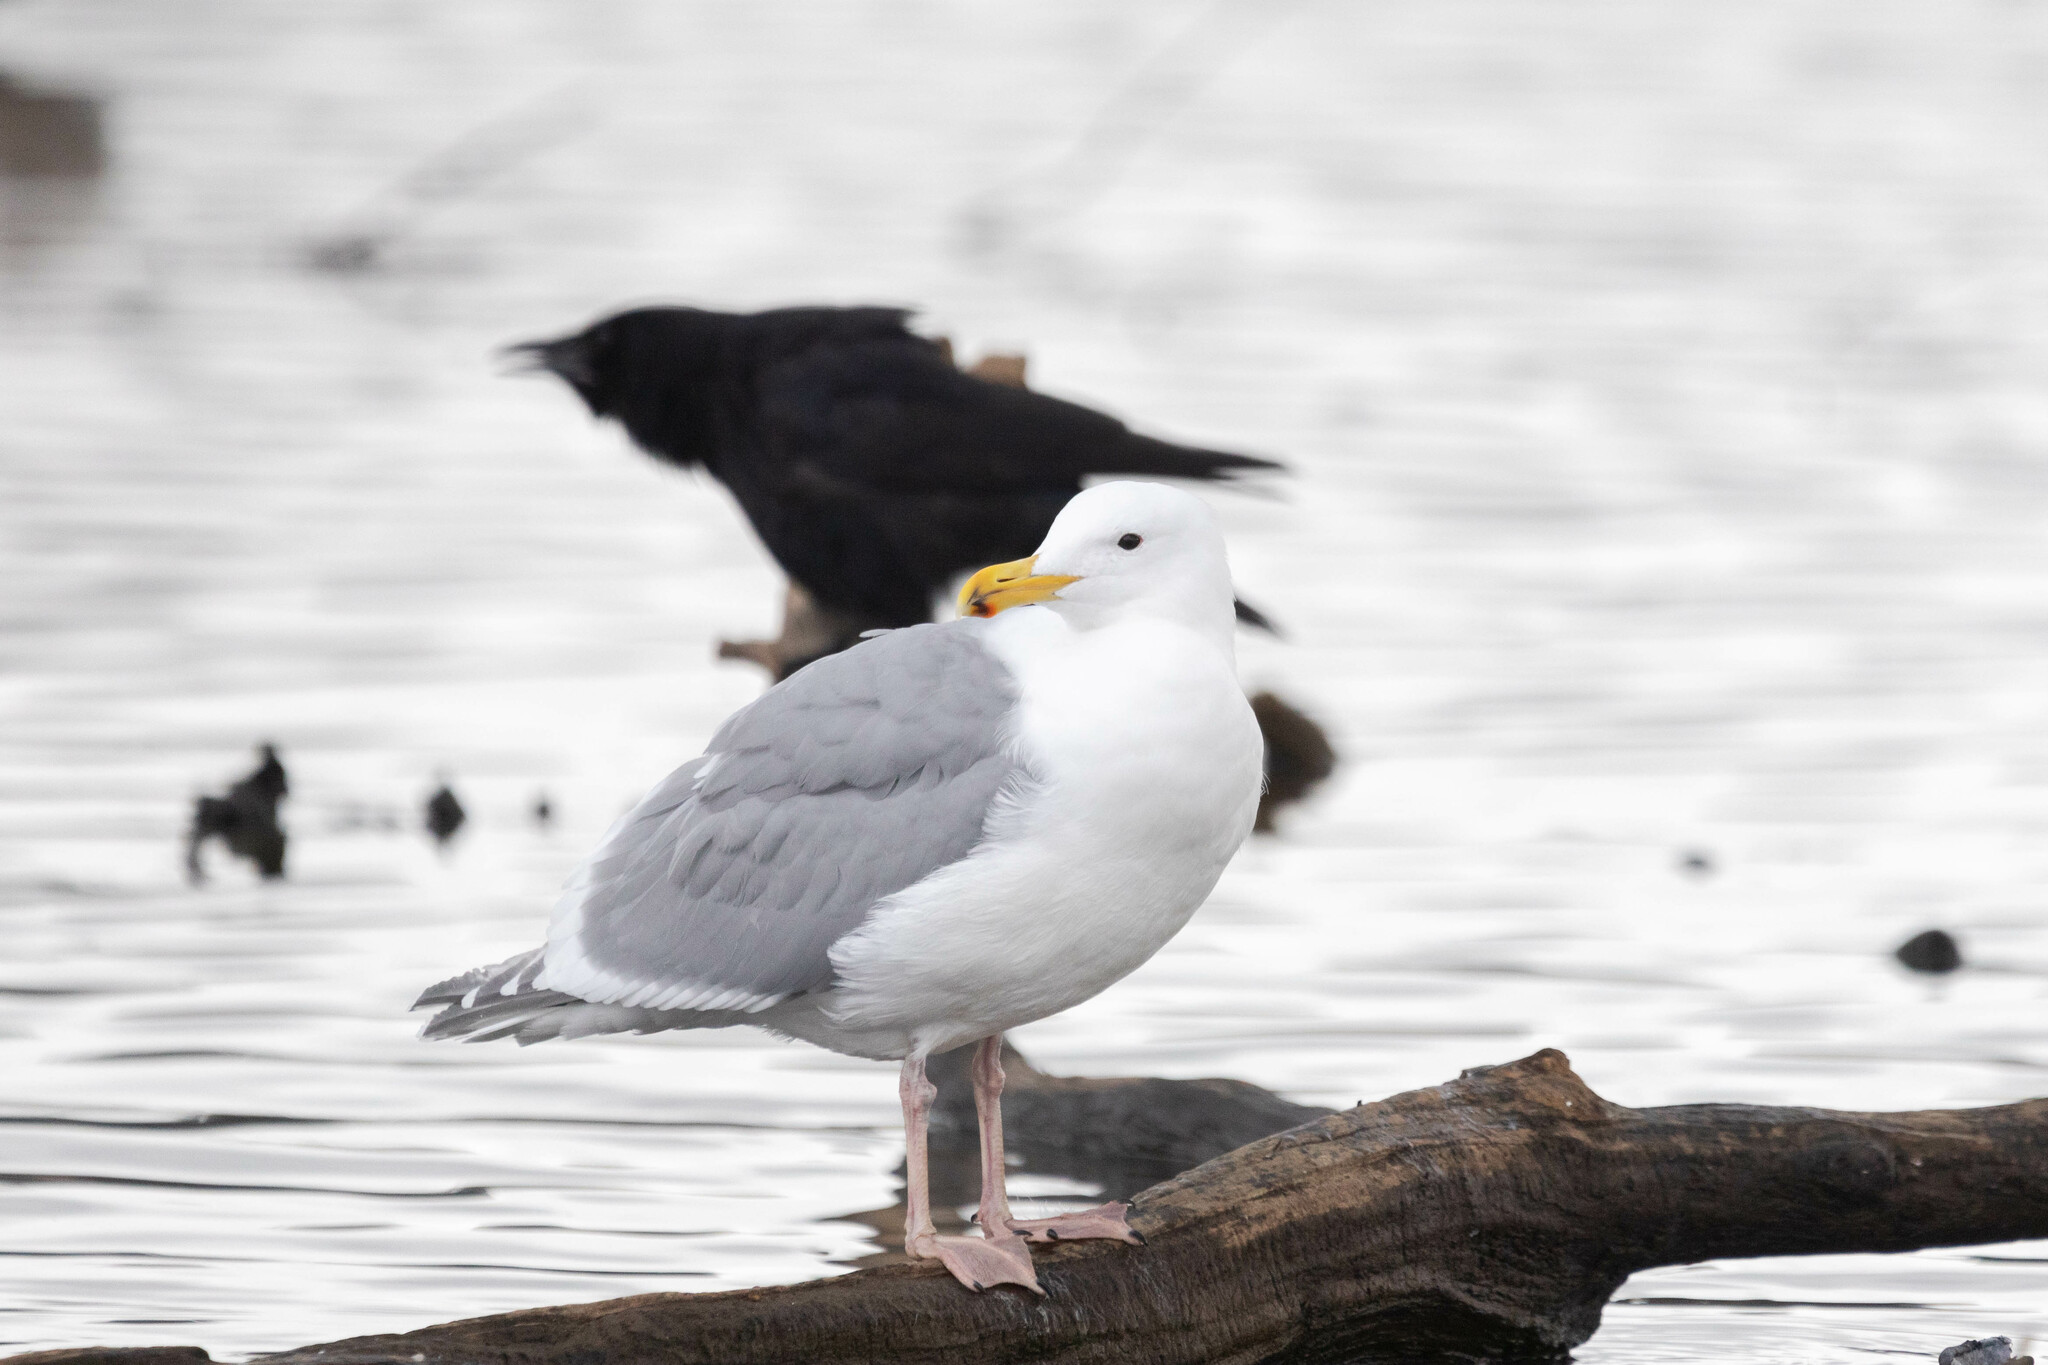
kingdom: Animalia
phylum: Chordata
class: Aves
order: Charadriiformes
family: Laridae
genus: Larus
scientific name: Larus
